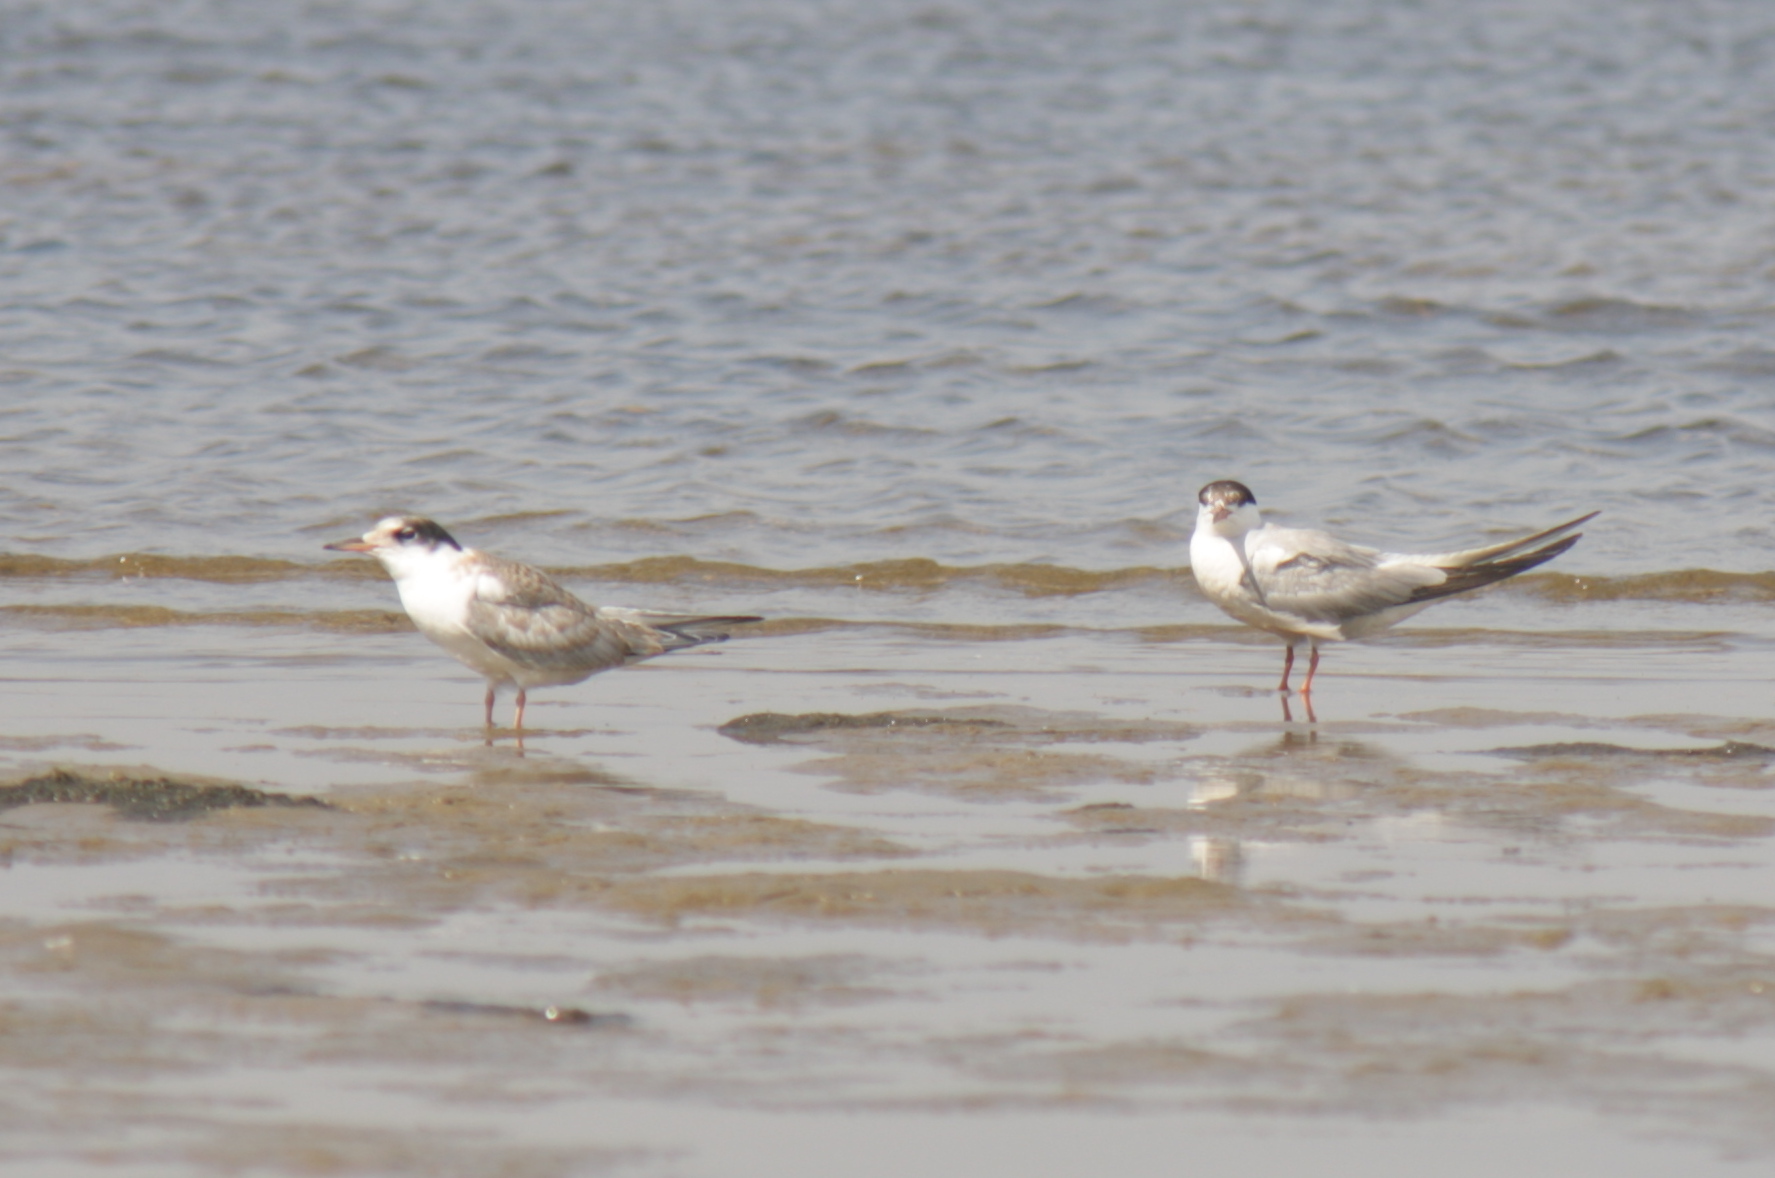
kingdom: Animalia
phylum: Chordata
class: Aves
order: Charadriiformes
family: Laridae
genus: Sterna
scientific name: Sterna hirundo
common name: Common tern
